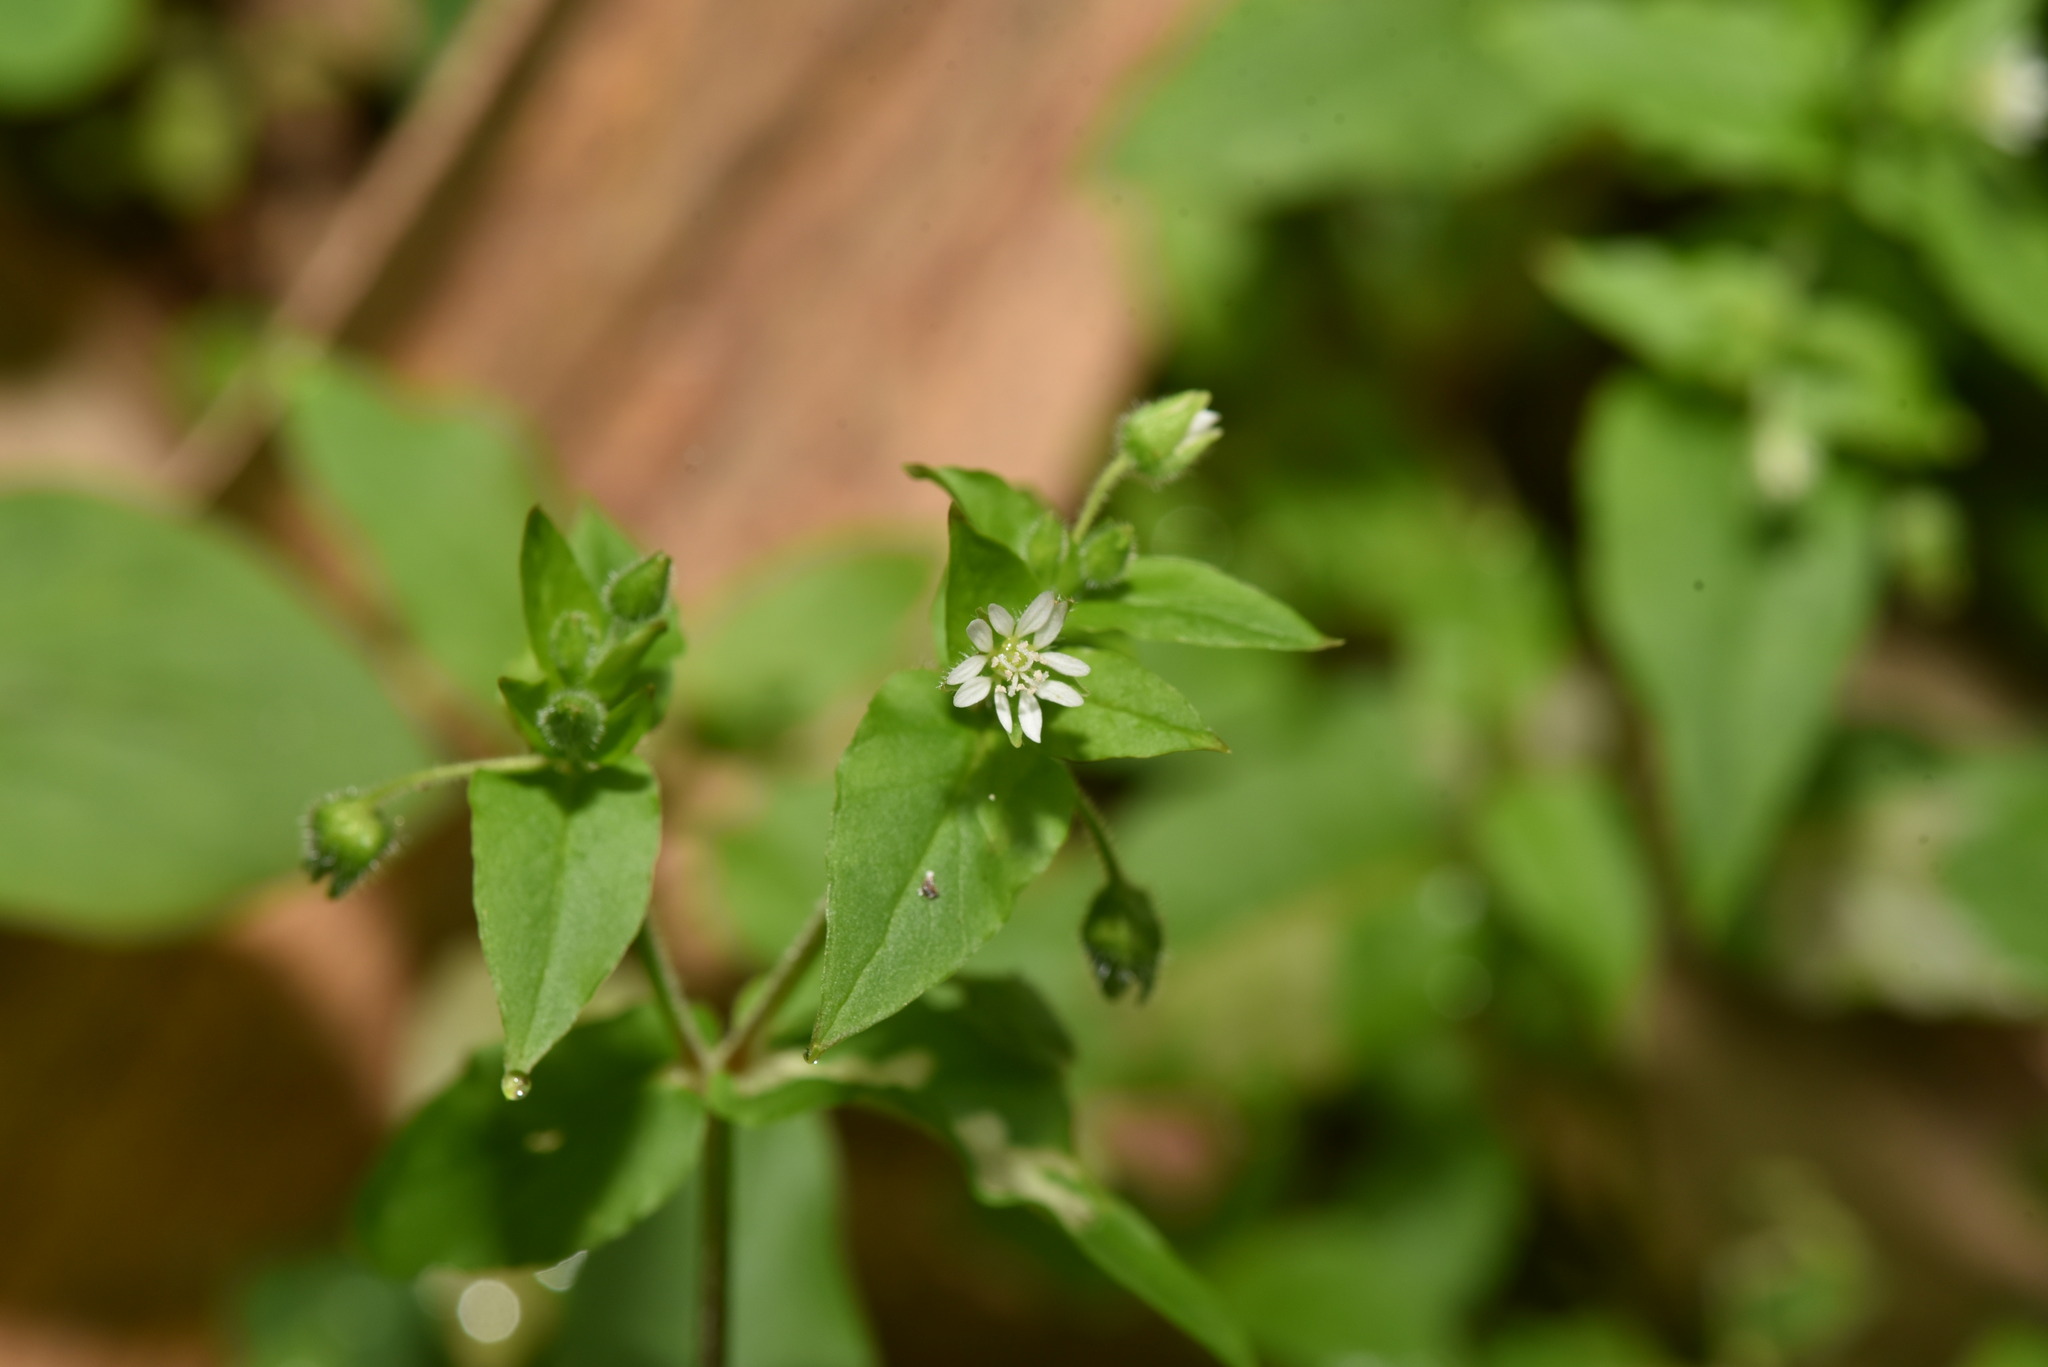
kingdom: Plantae
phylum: Tracheophyta
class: Magnoliopsida
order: Caryophyllales
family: Caryophyllaceae
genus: Stellaria
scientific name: Stellaria aquatica
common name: Water chickweed
